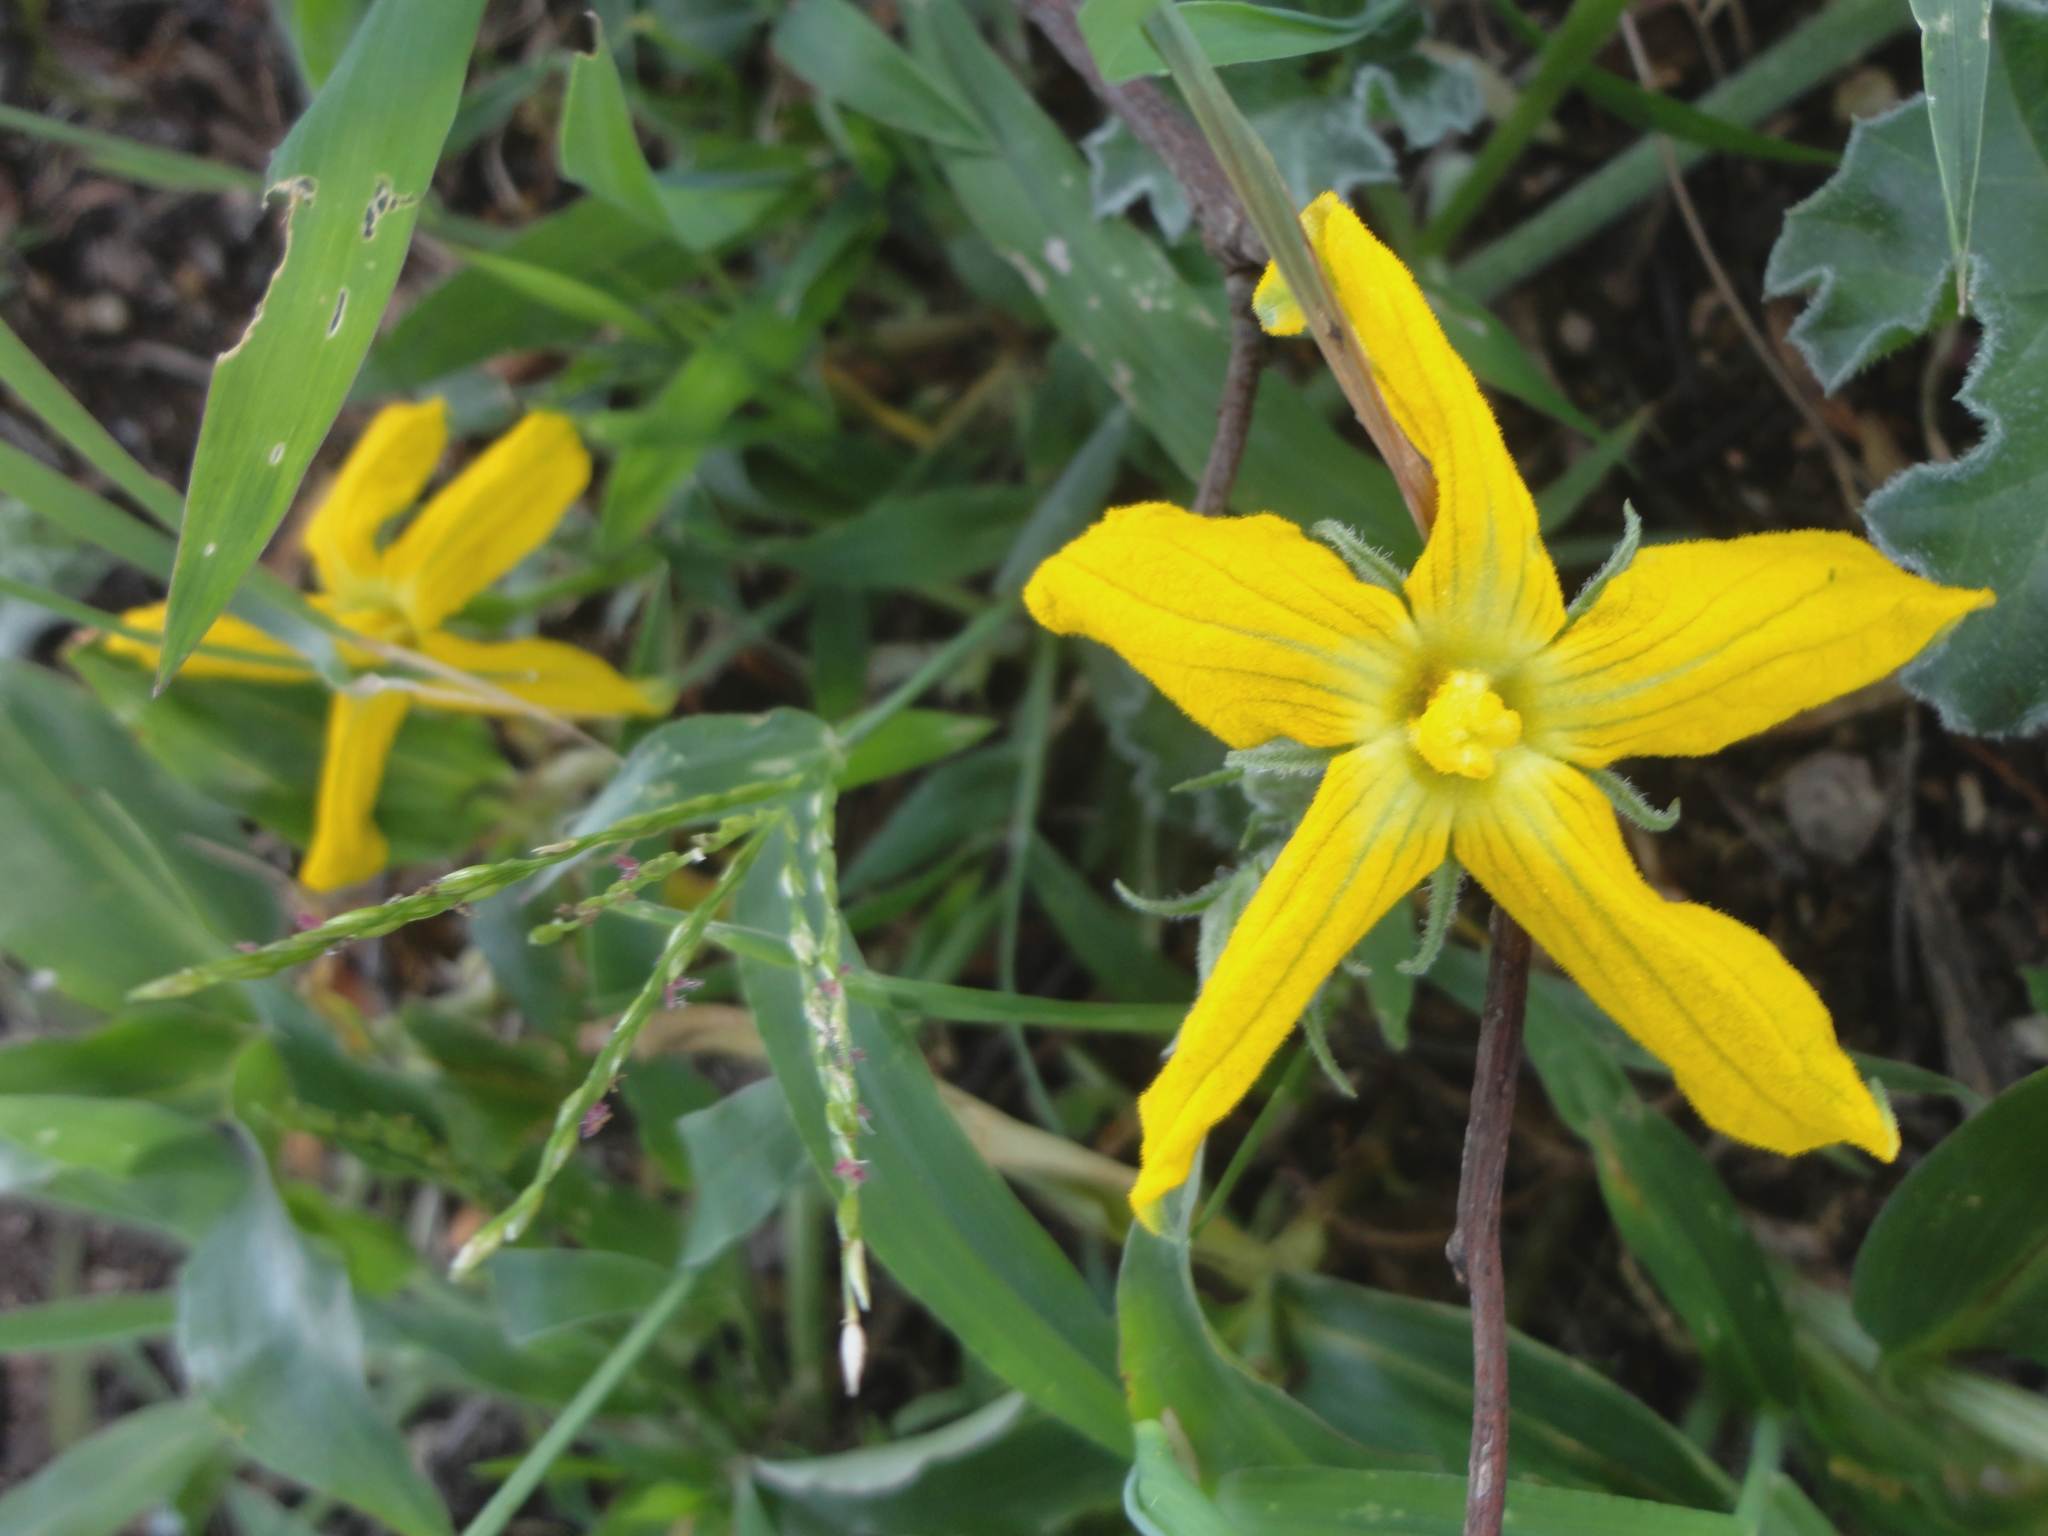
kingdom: Plantae
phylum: Tracheophyta
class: Magnoliopsida
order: Cucurbitales
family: Cucurbitaceae
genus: Apodanthera
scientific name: Apodanthera aspera
